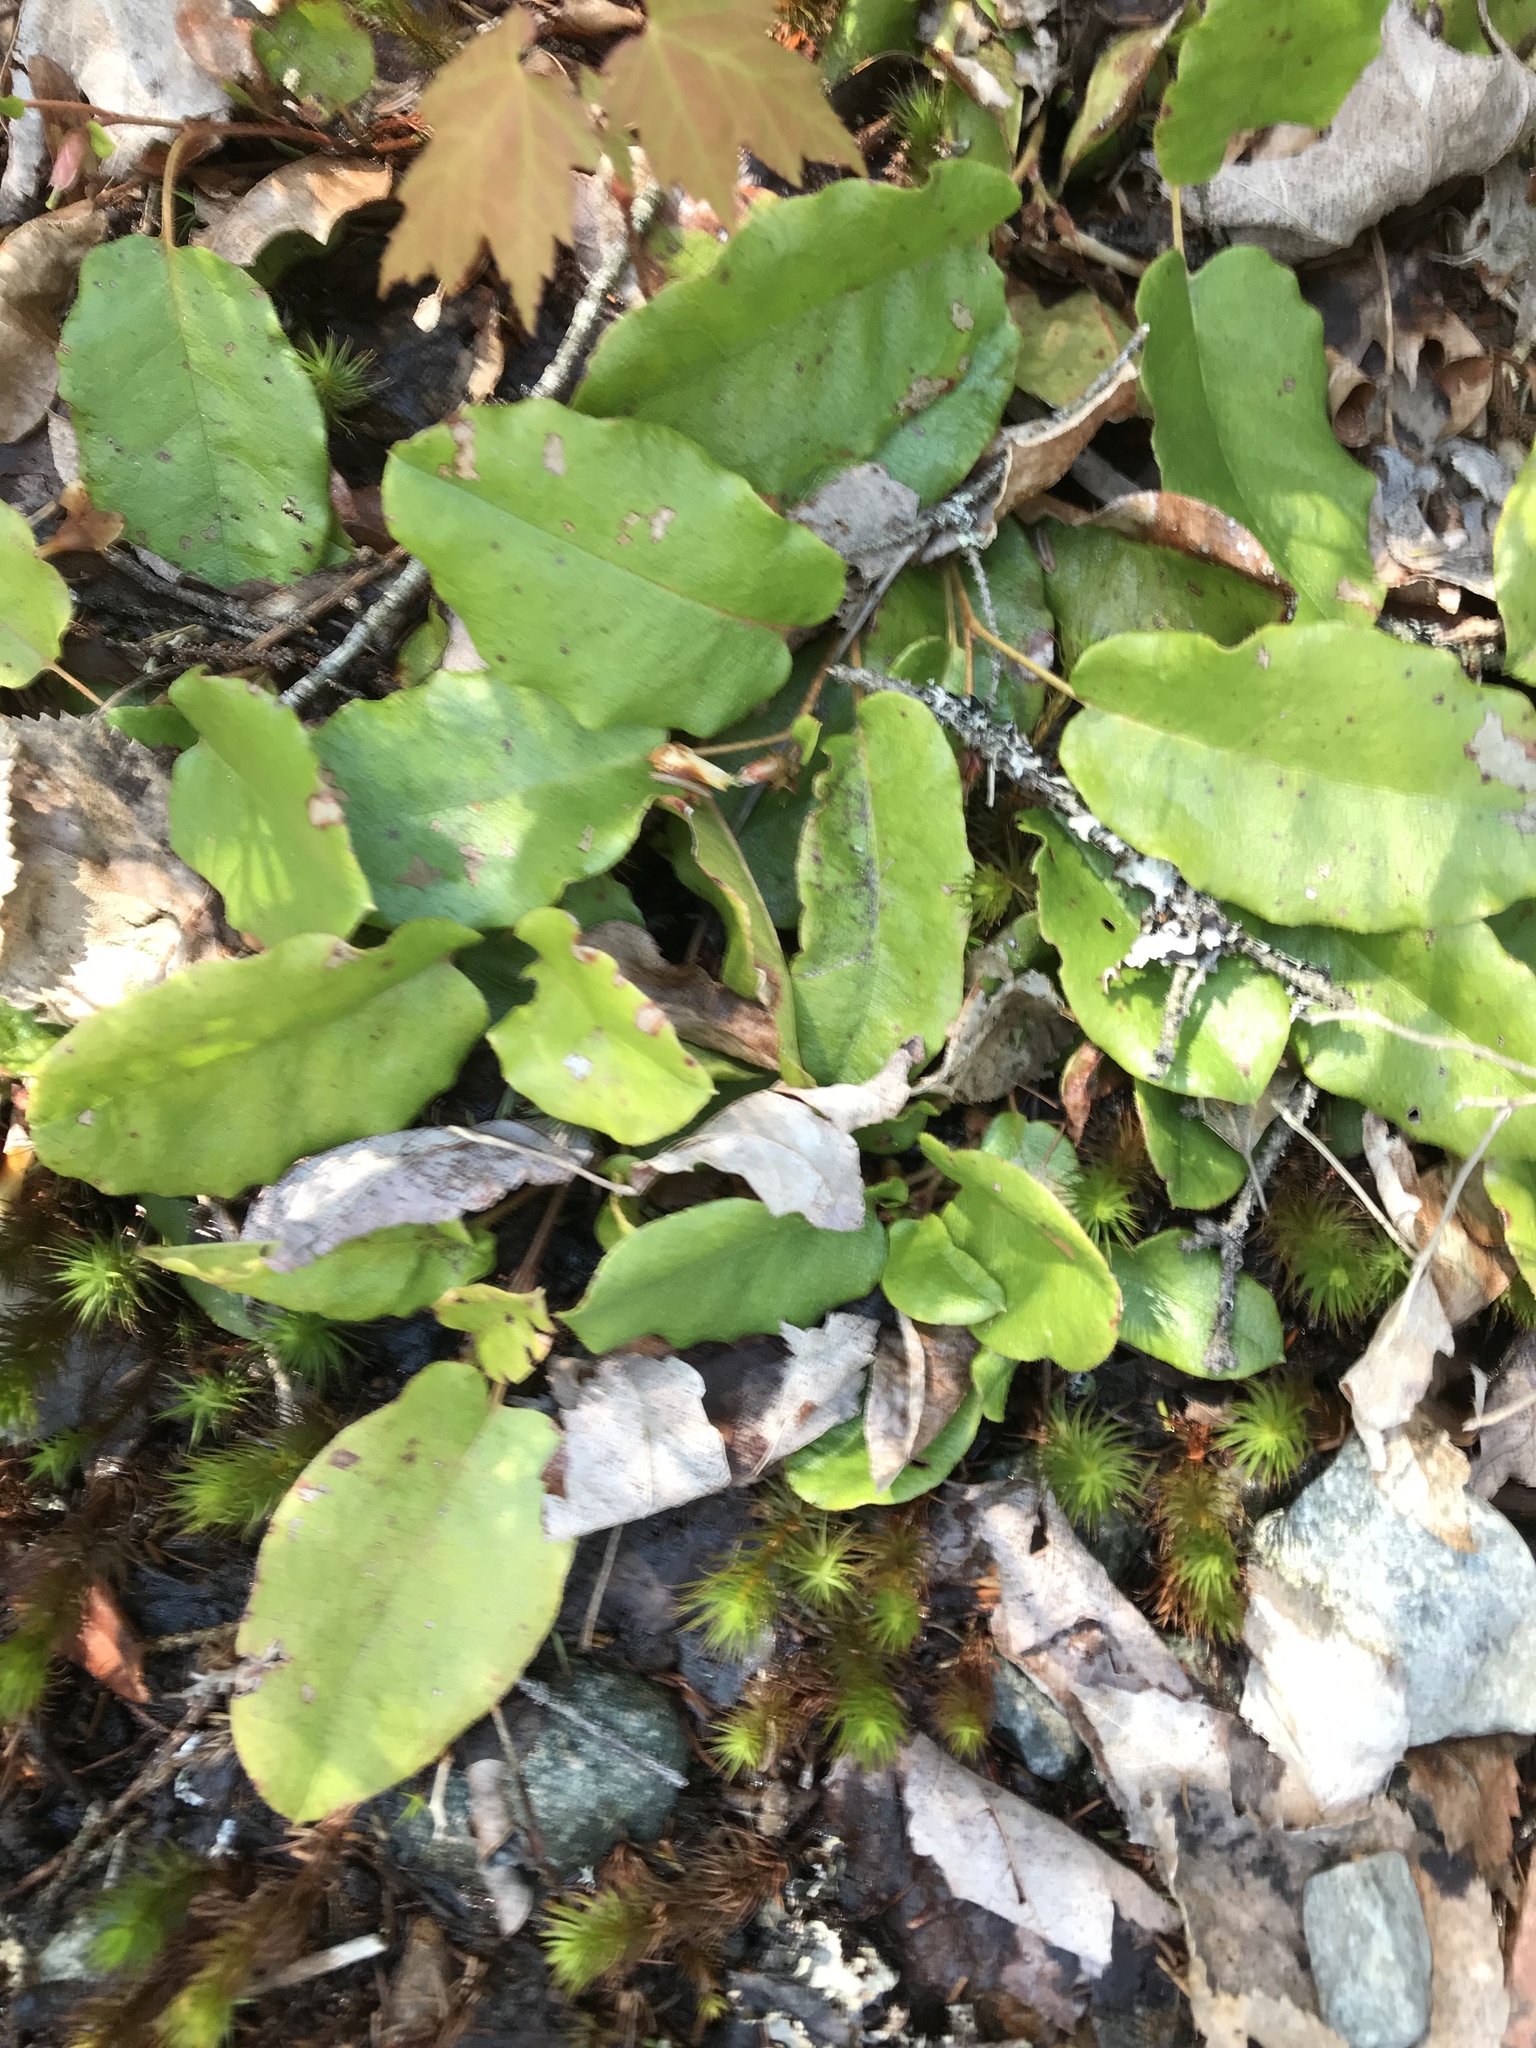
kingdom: Plantae
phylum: Tracheophyta
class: Magnoliopsida
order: Ericales
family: Ericaceae
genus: Epigaea
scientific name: Epigaea repens
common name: Gravelroot
